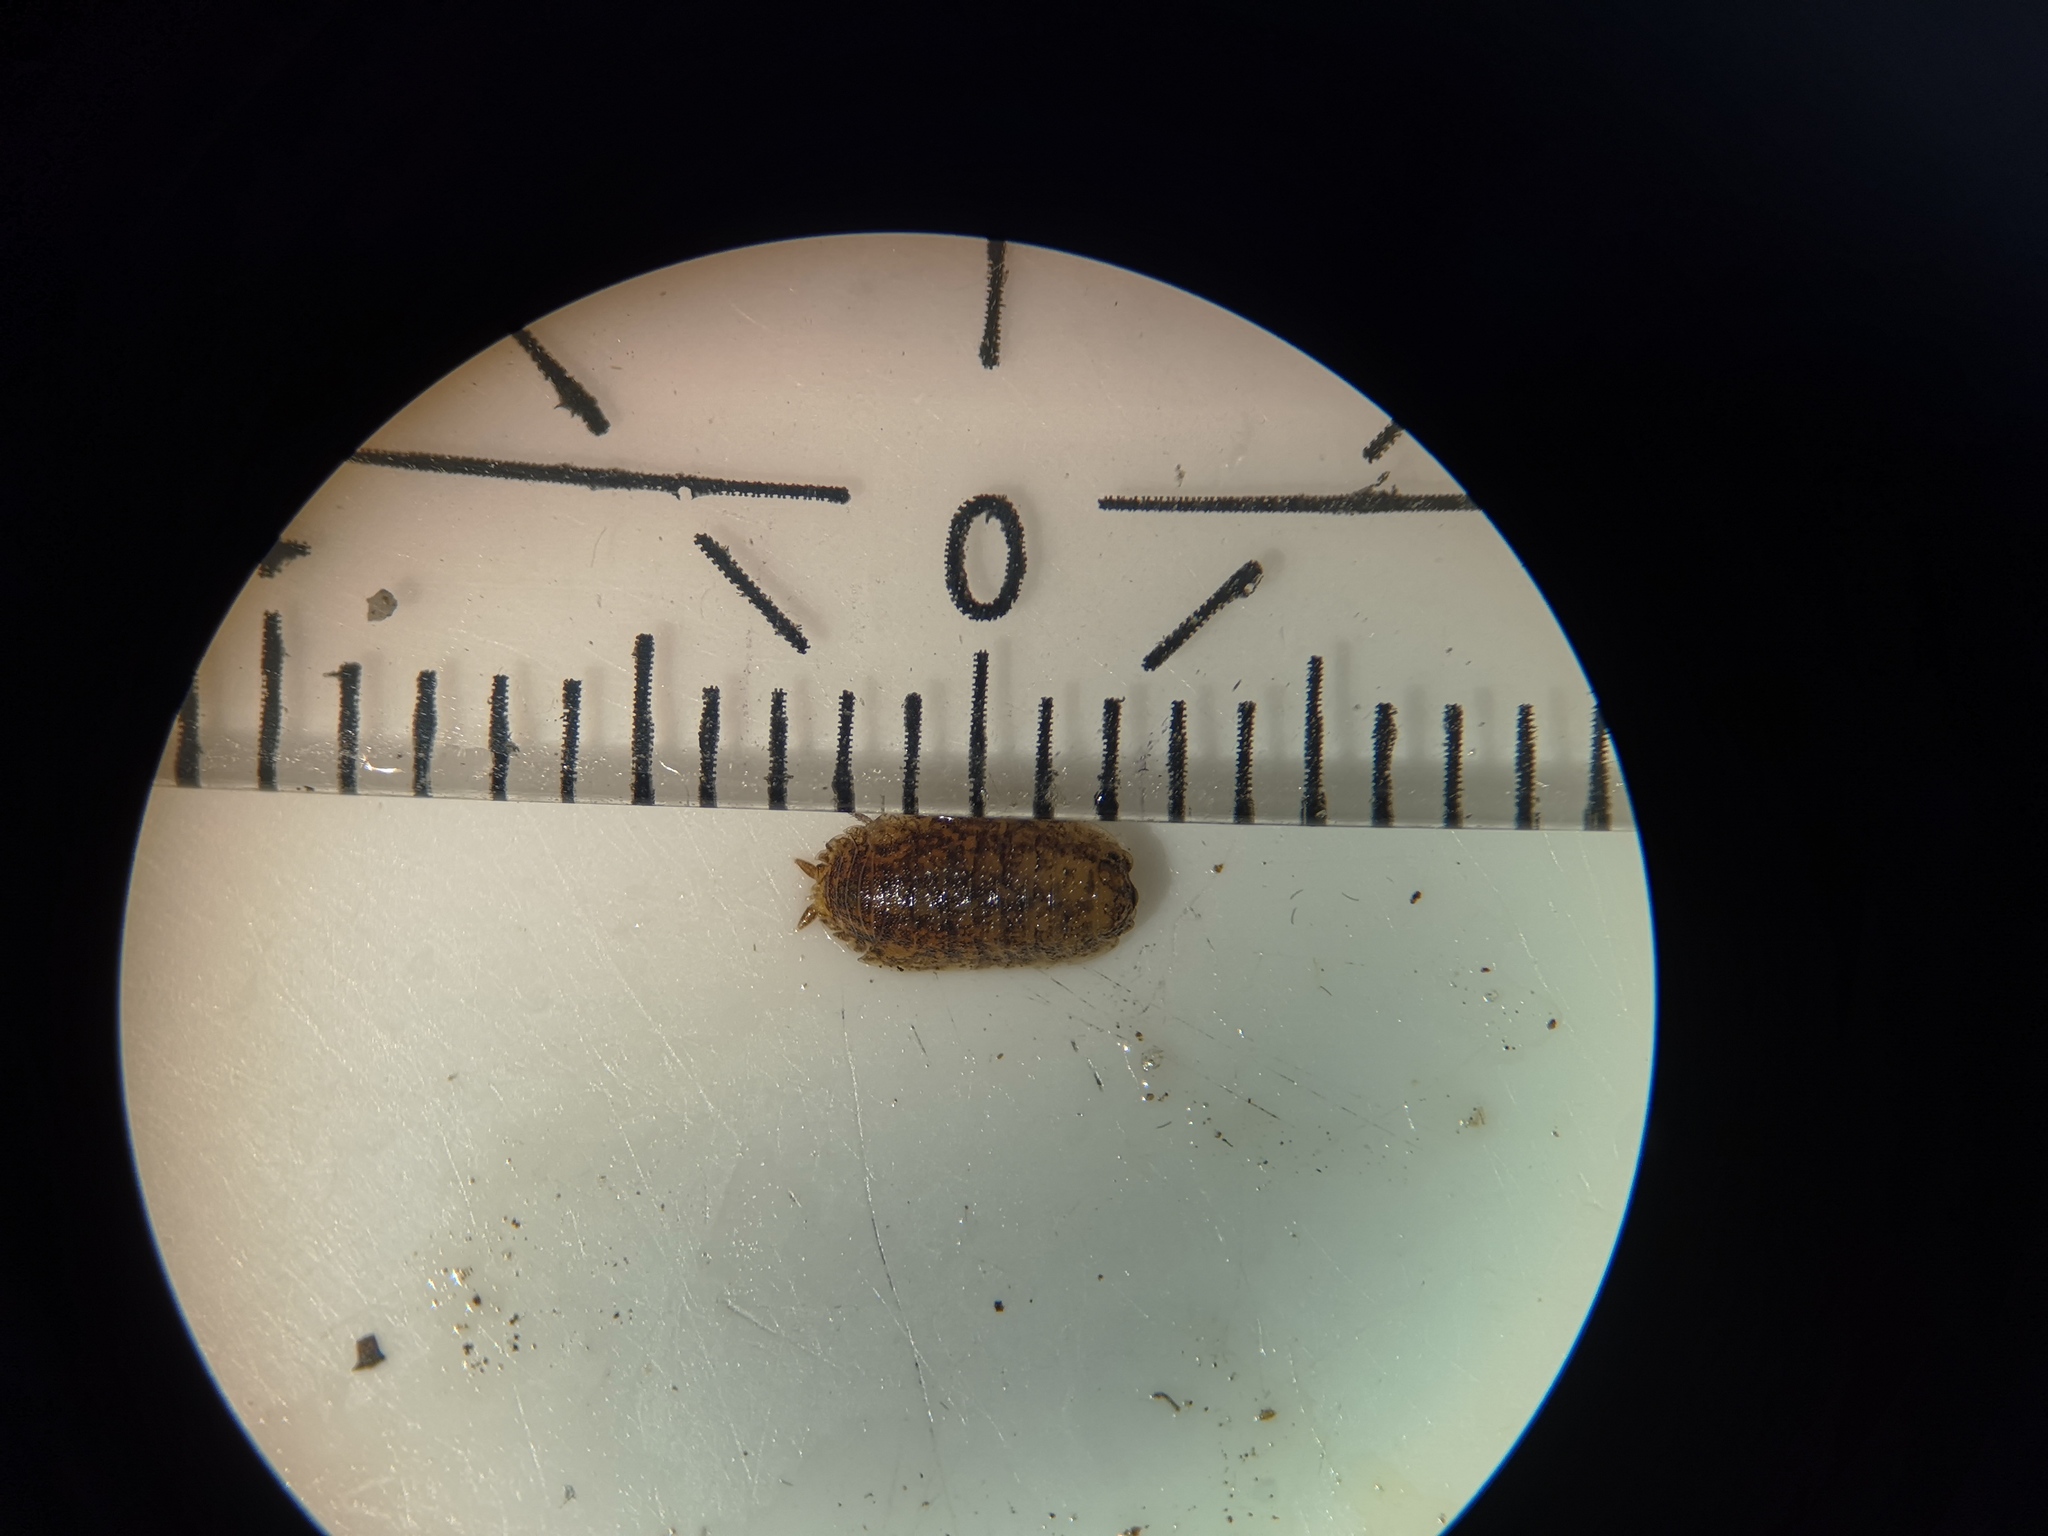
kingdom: Animalia
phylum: Arthropoda
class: Malacostraca
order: Isopoda
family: Porcellionidae
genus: Porcellio
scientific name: Porcellio scaber
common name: Common rough woodlouse
